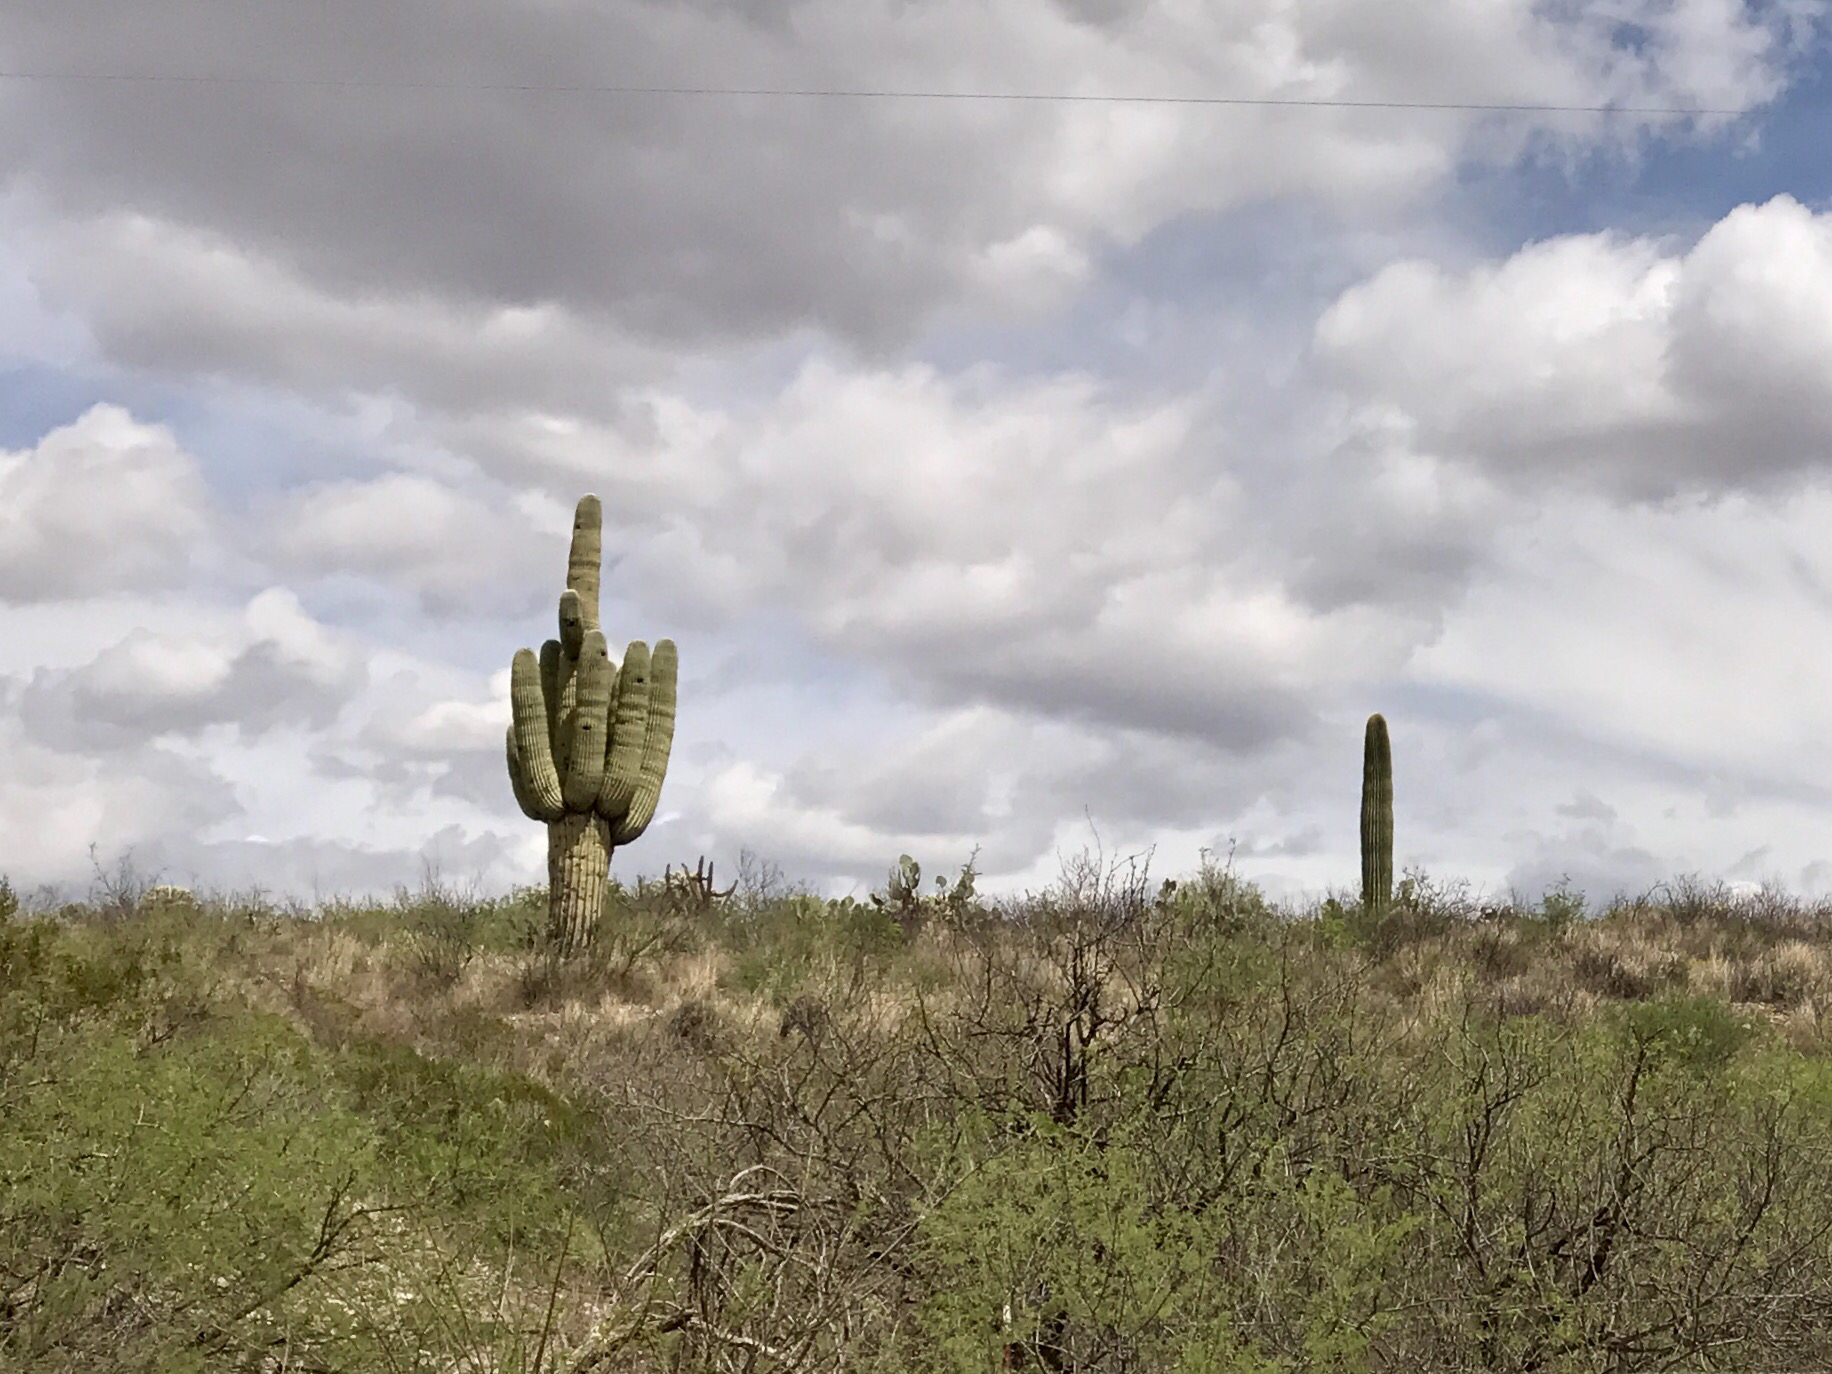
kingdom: Plantae
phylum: Tracheophyta
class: Magnoliopsida
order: Caryophyllales
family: Cactaceae
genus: Carnegiea
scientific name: Carnegiea gigantea
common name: Saguaro
